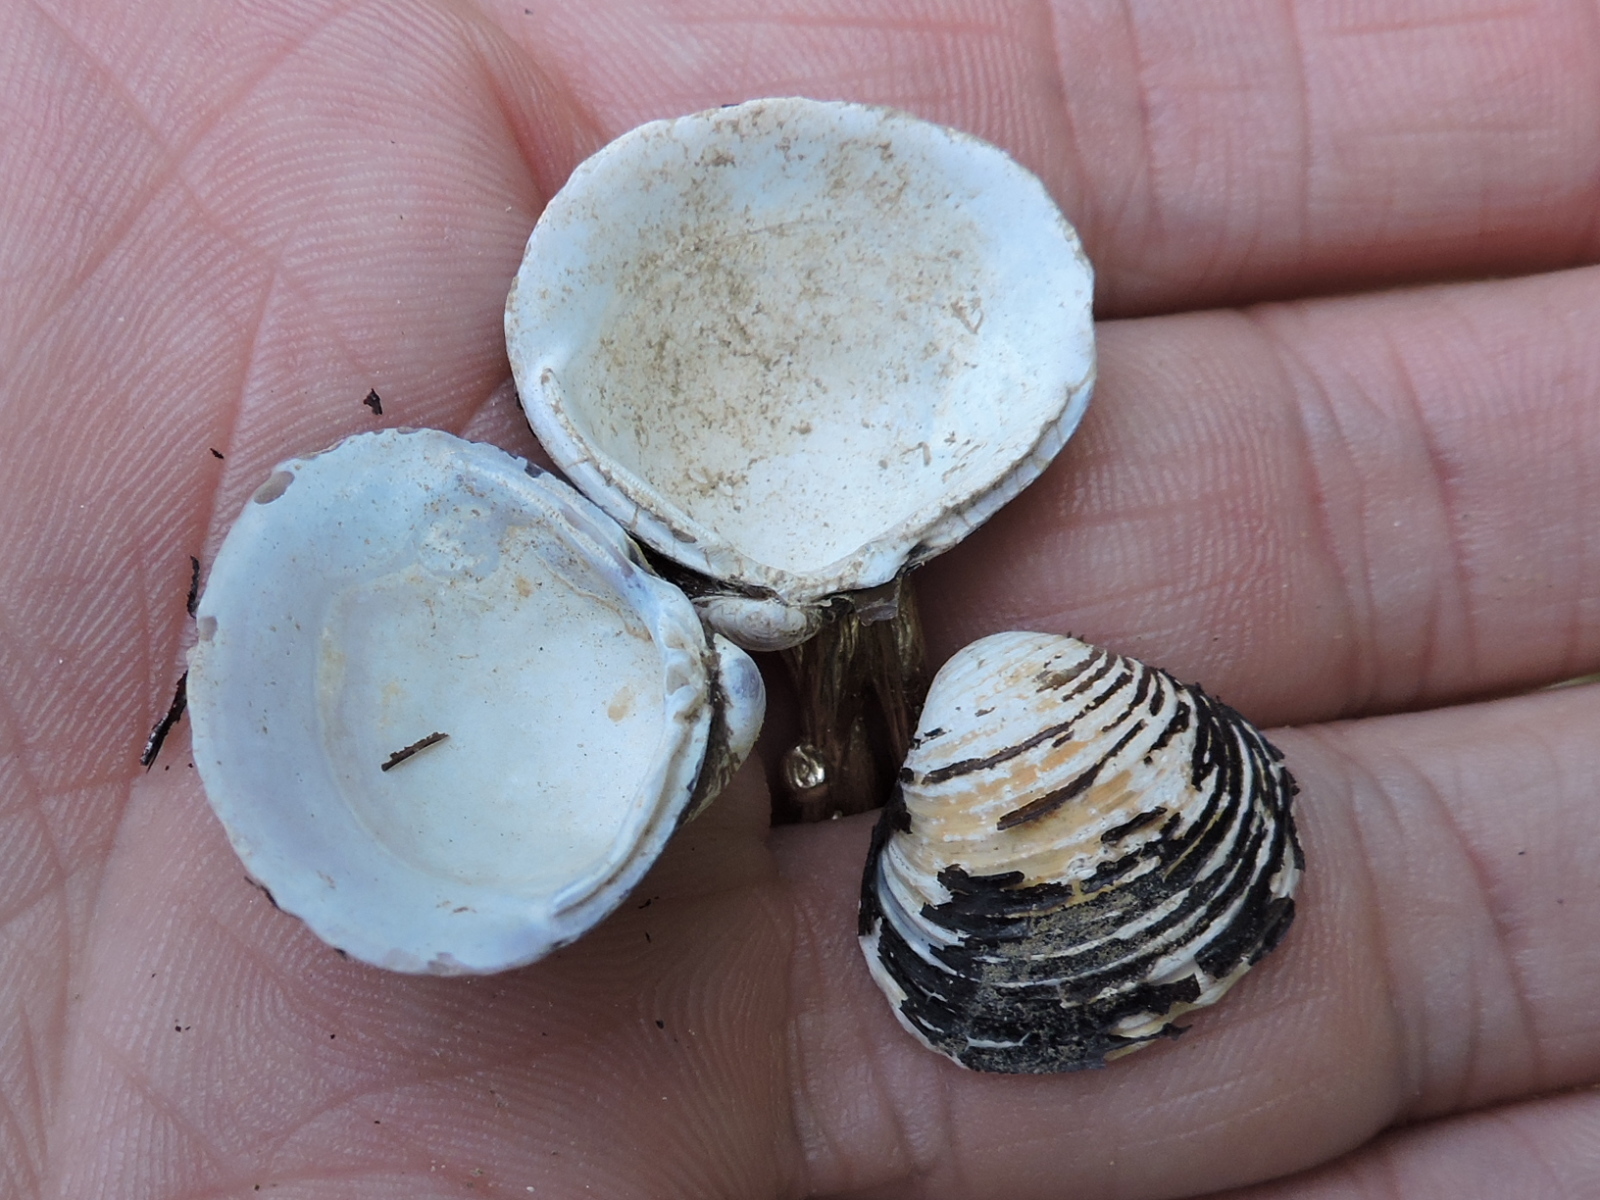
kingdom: Animalia
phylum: Mollusca
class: Bivalvia
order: Venerida
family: Cyrenidae
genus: Corbicula
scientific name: Corbicula fluminea
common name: Asian clam
